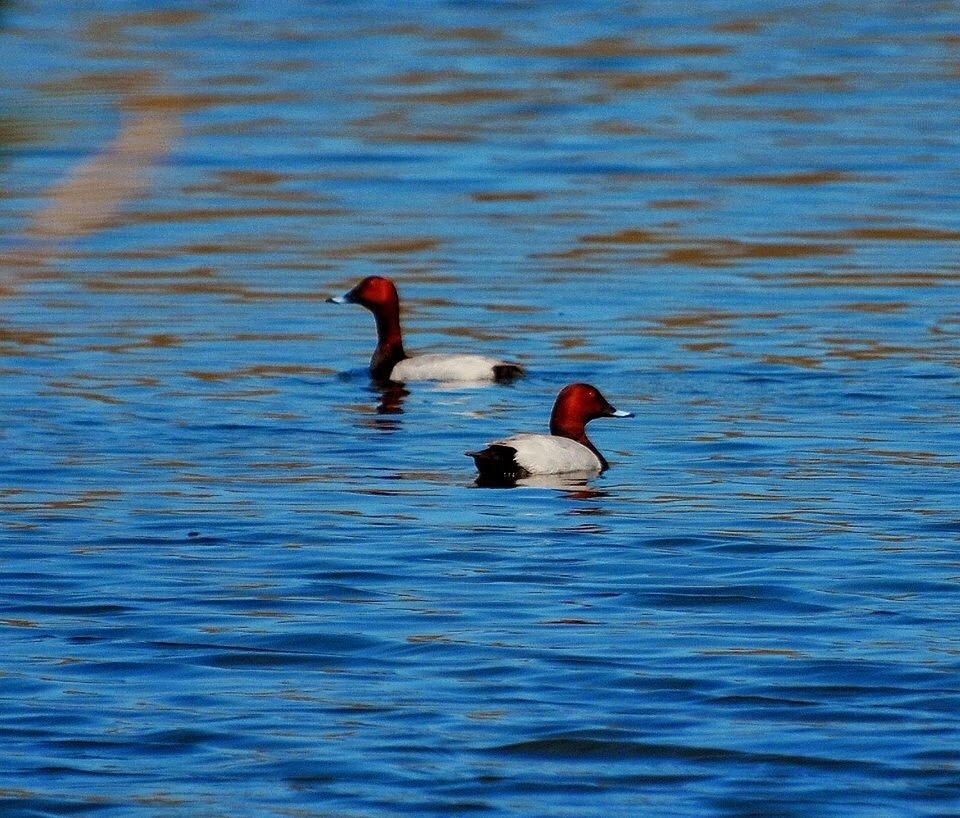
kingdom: Animalia
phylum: Chordata
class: Aves
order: Anseriformes
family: Anatidae
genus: Aythya
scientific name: Aythya ferina
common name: Common pochard
